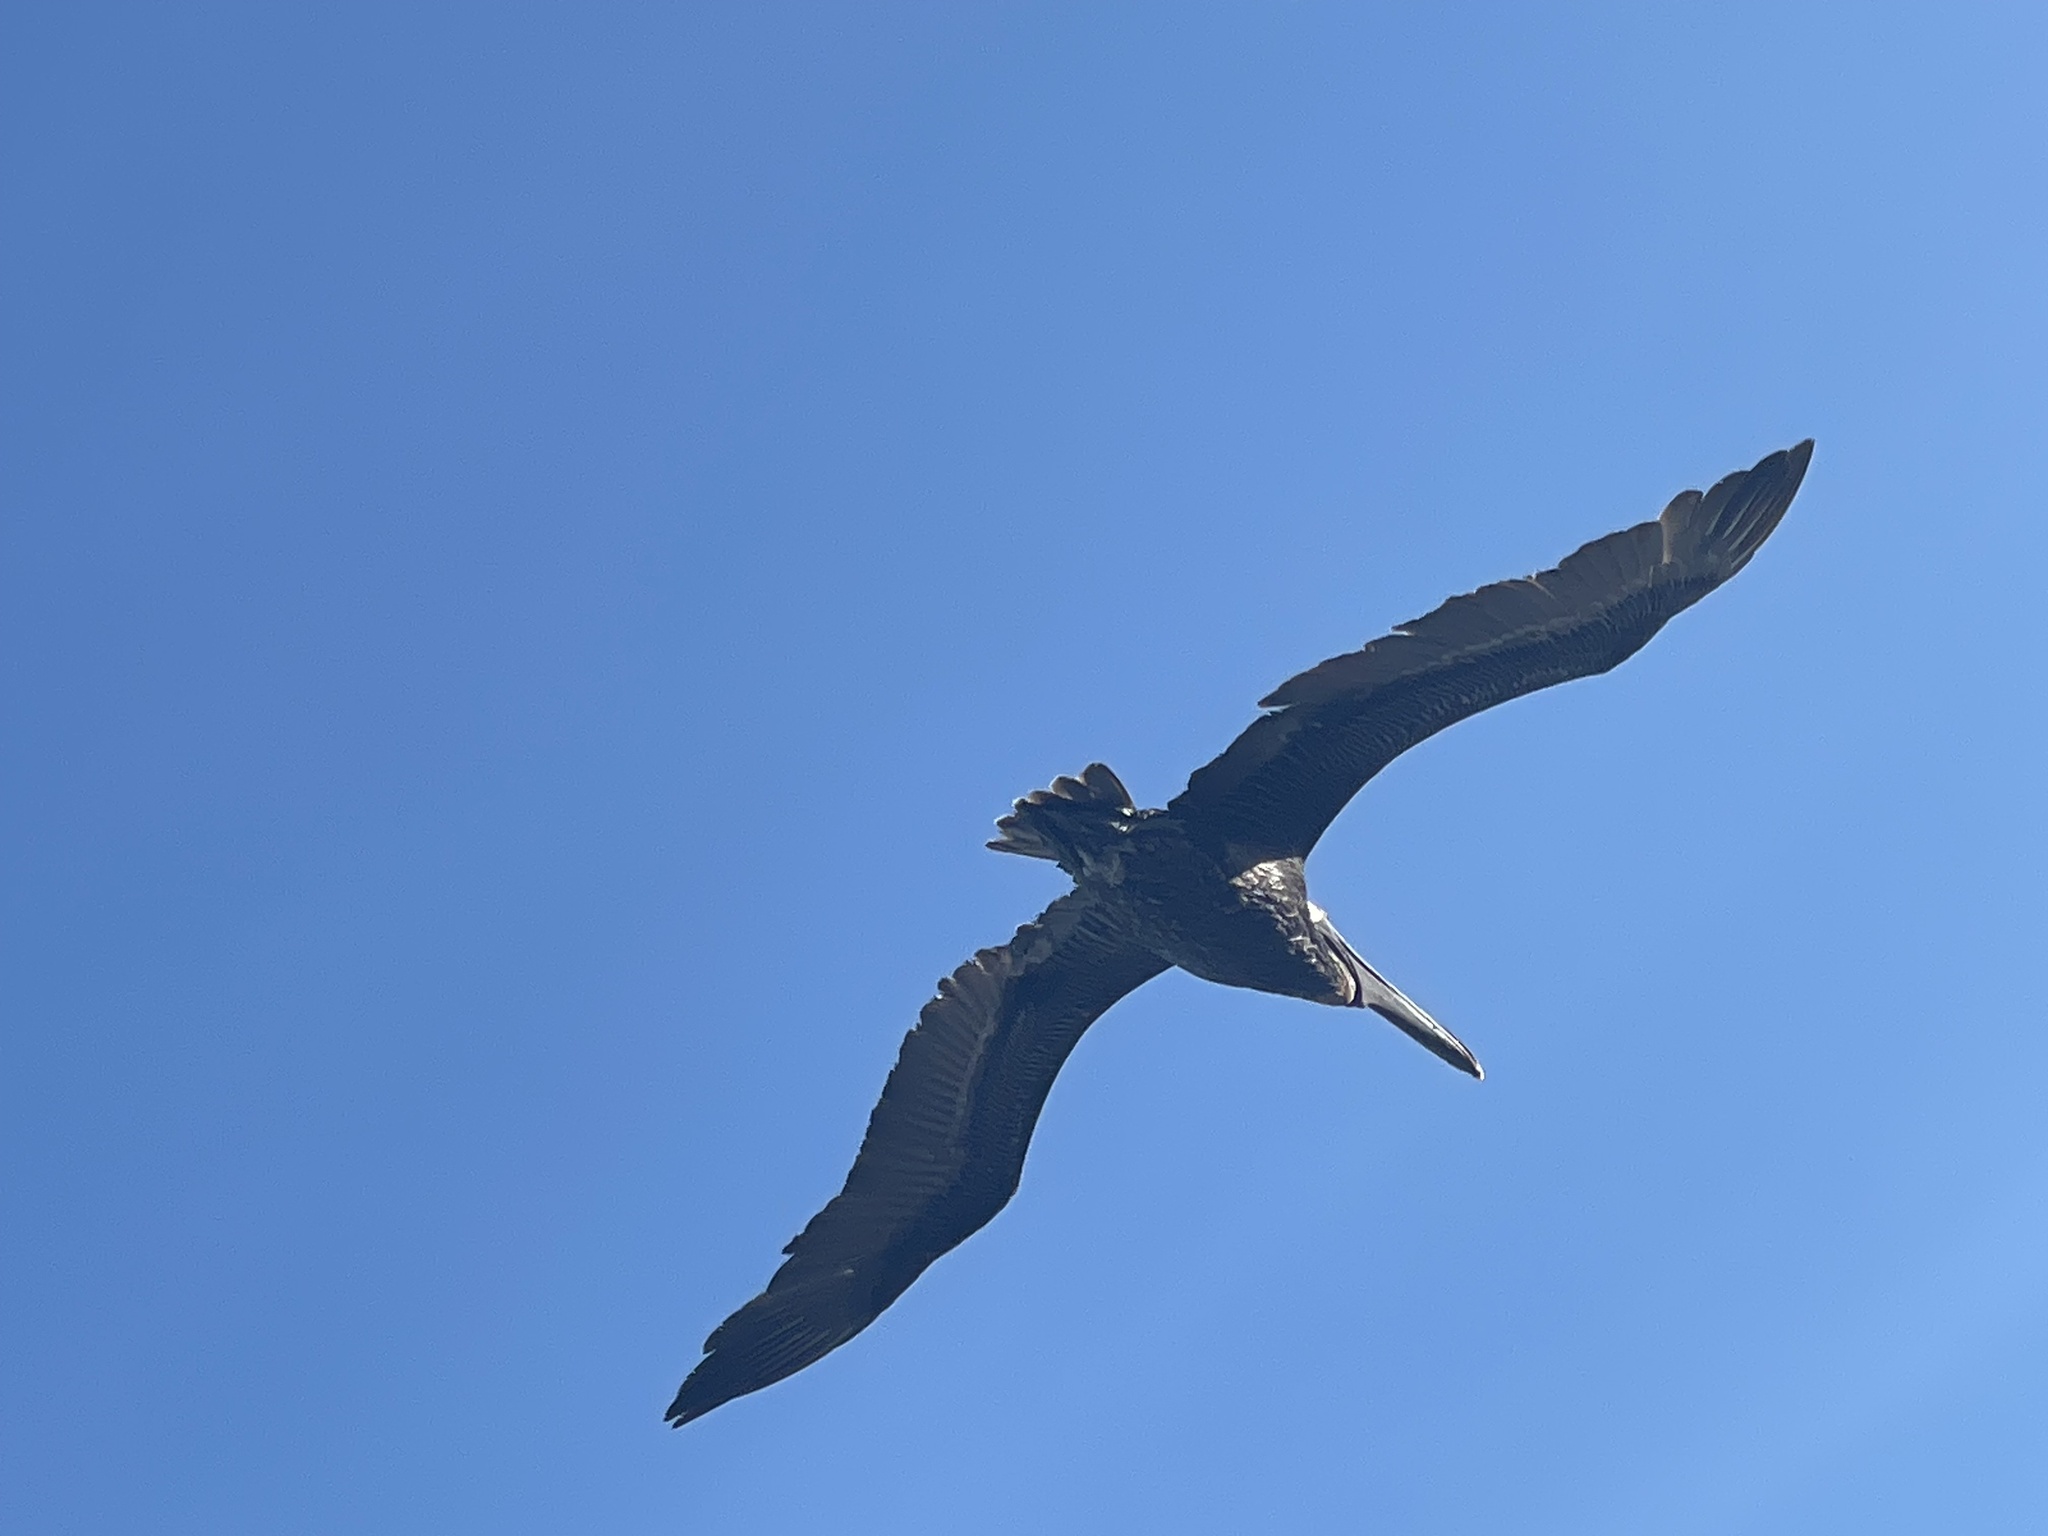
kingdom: Animalia
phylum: Chordata
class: Aves
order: Pelecaniformes
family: Pelecanidae
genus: Pelecanus
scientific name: Pelecanus occidentalis
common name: Brown pelican
